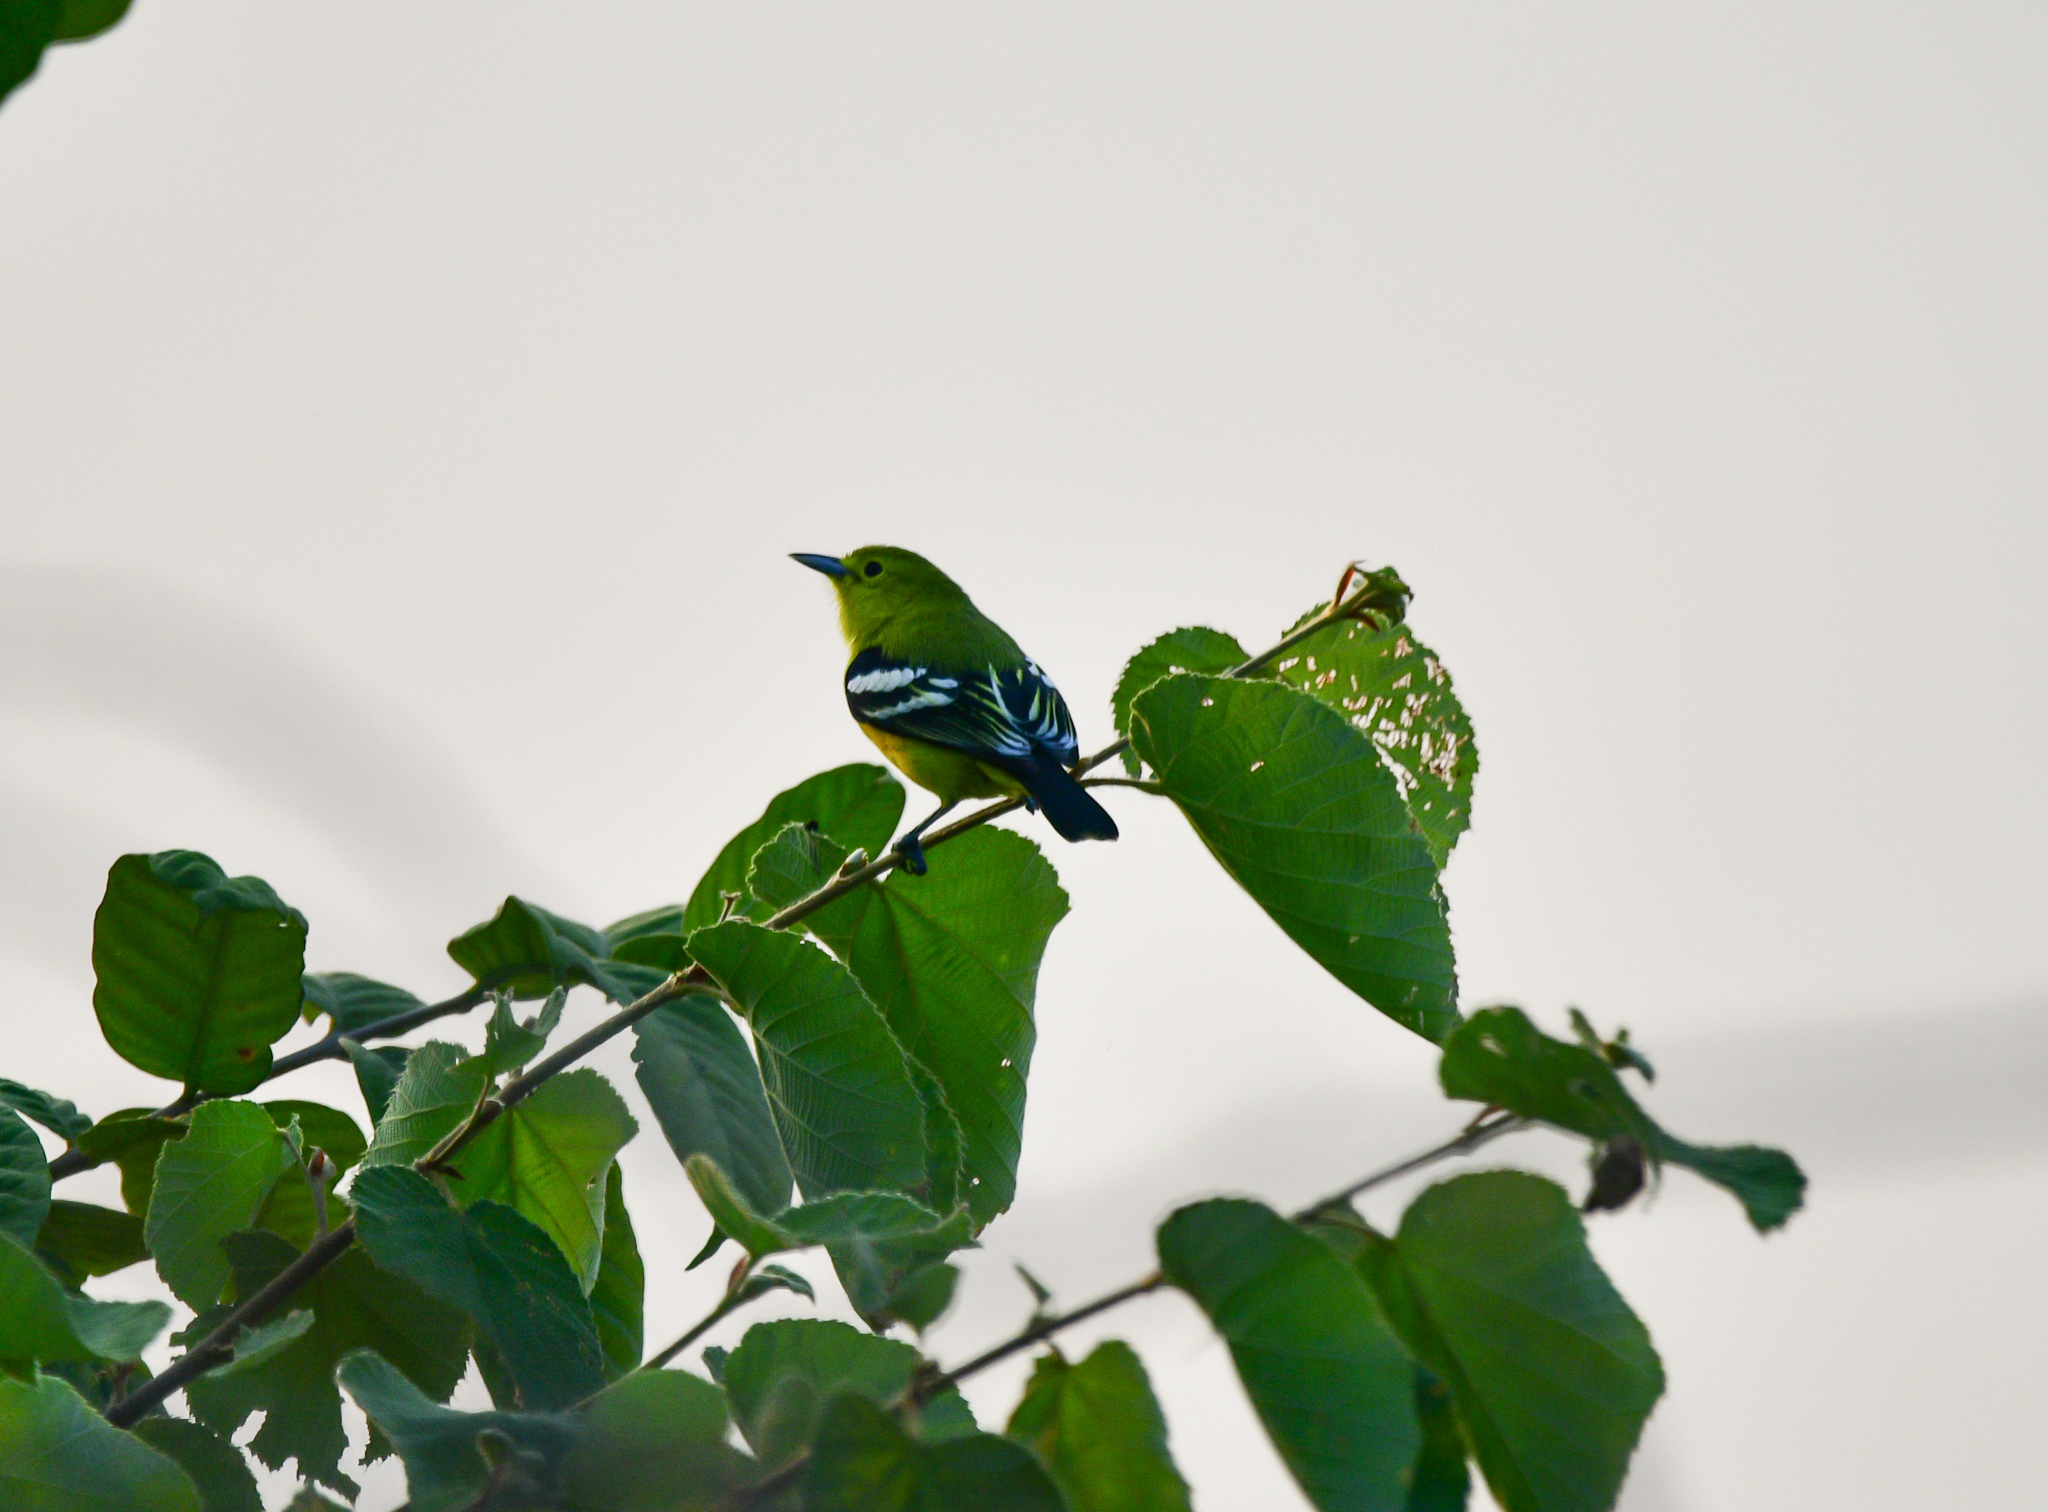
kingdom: Animalia
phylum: Chordata
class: Aves
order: Passeriformes
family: Aegithinidae
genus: Aegithina
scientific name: Aegithina tiphia
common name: Common iora
